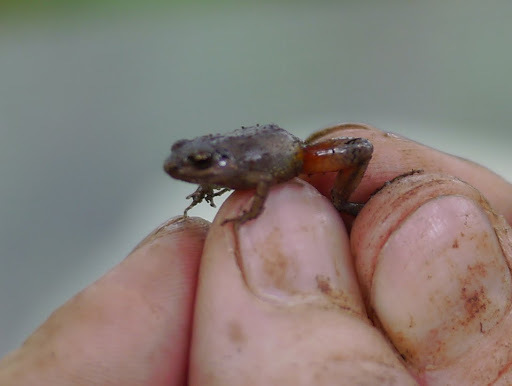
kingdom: Animalia
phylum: Chordata
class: Amphibia
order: Anura
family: Arthroleptidae
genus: Arthroleptis
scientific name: Arthroleptis sylvaticus
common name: Forest screeching frog
